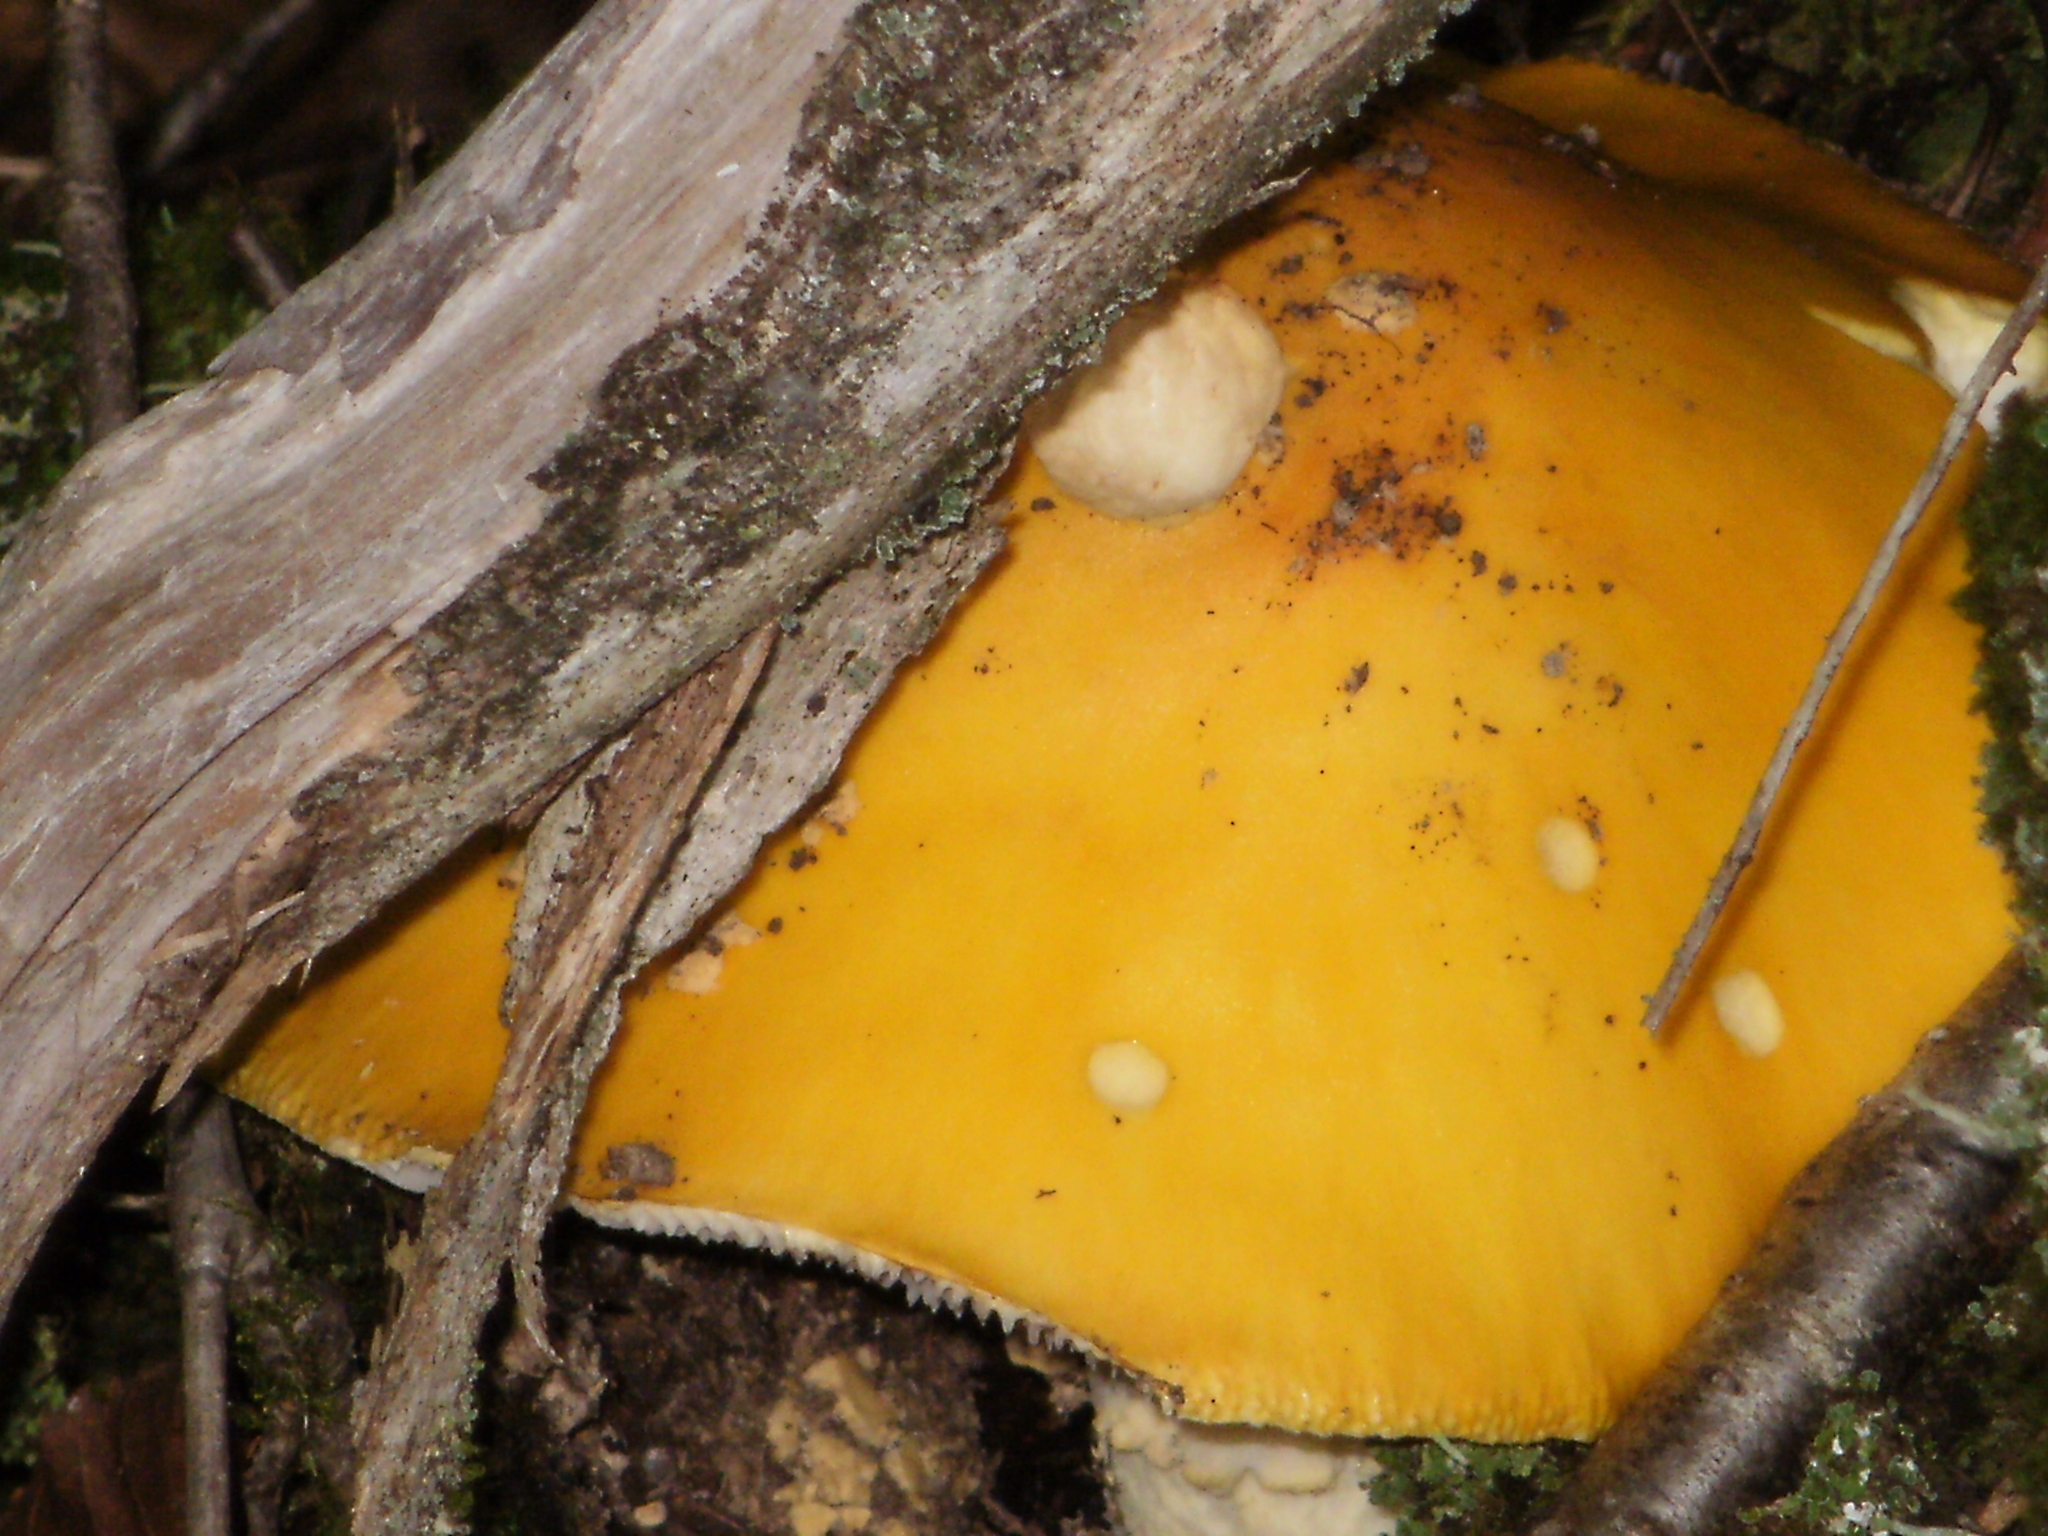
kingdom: Fungi
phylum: Basidiomycota
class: Agaricomycetes
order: Agaricales
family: Amanitaceae
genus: Amanita
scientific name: Amanita muscaria
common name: Fly agaric
